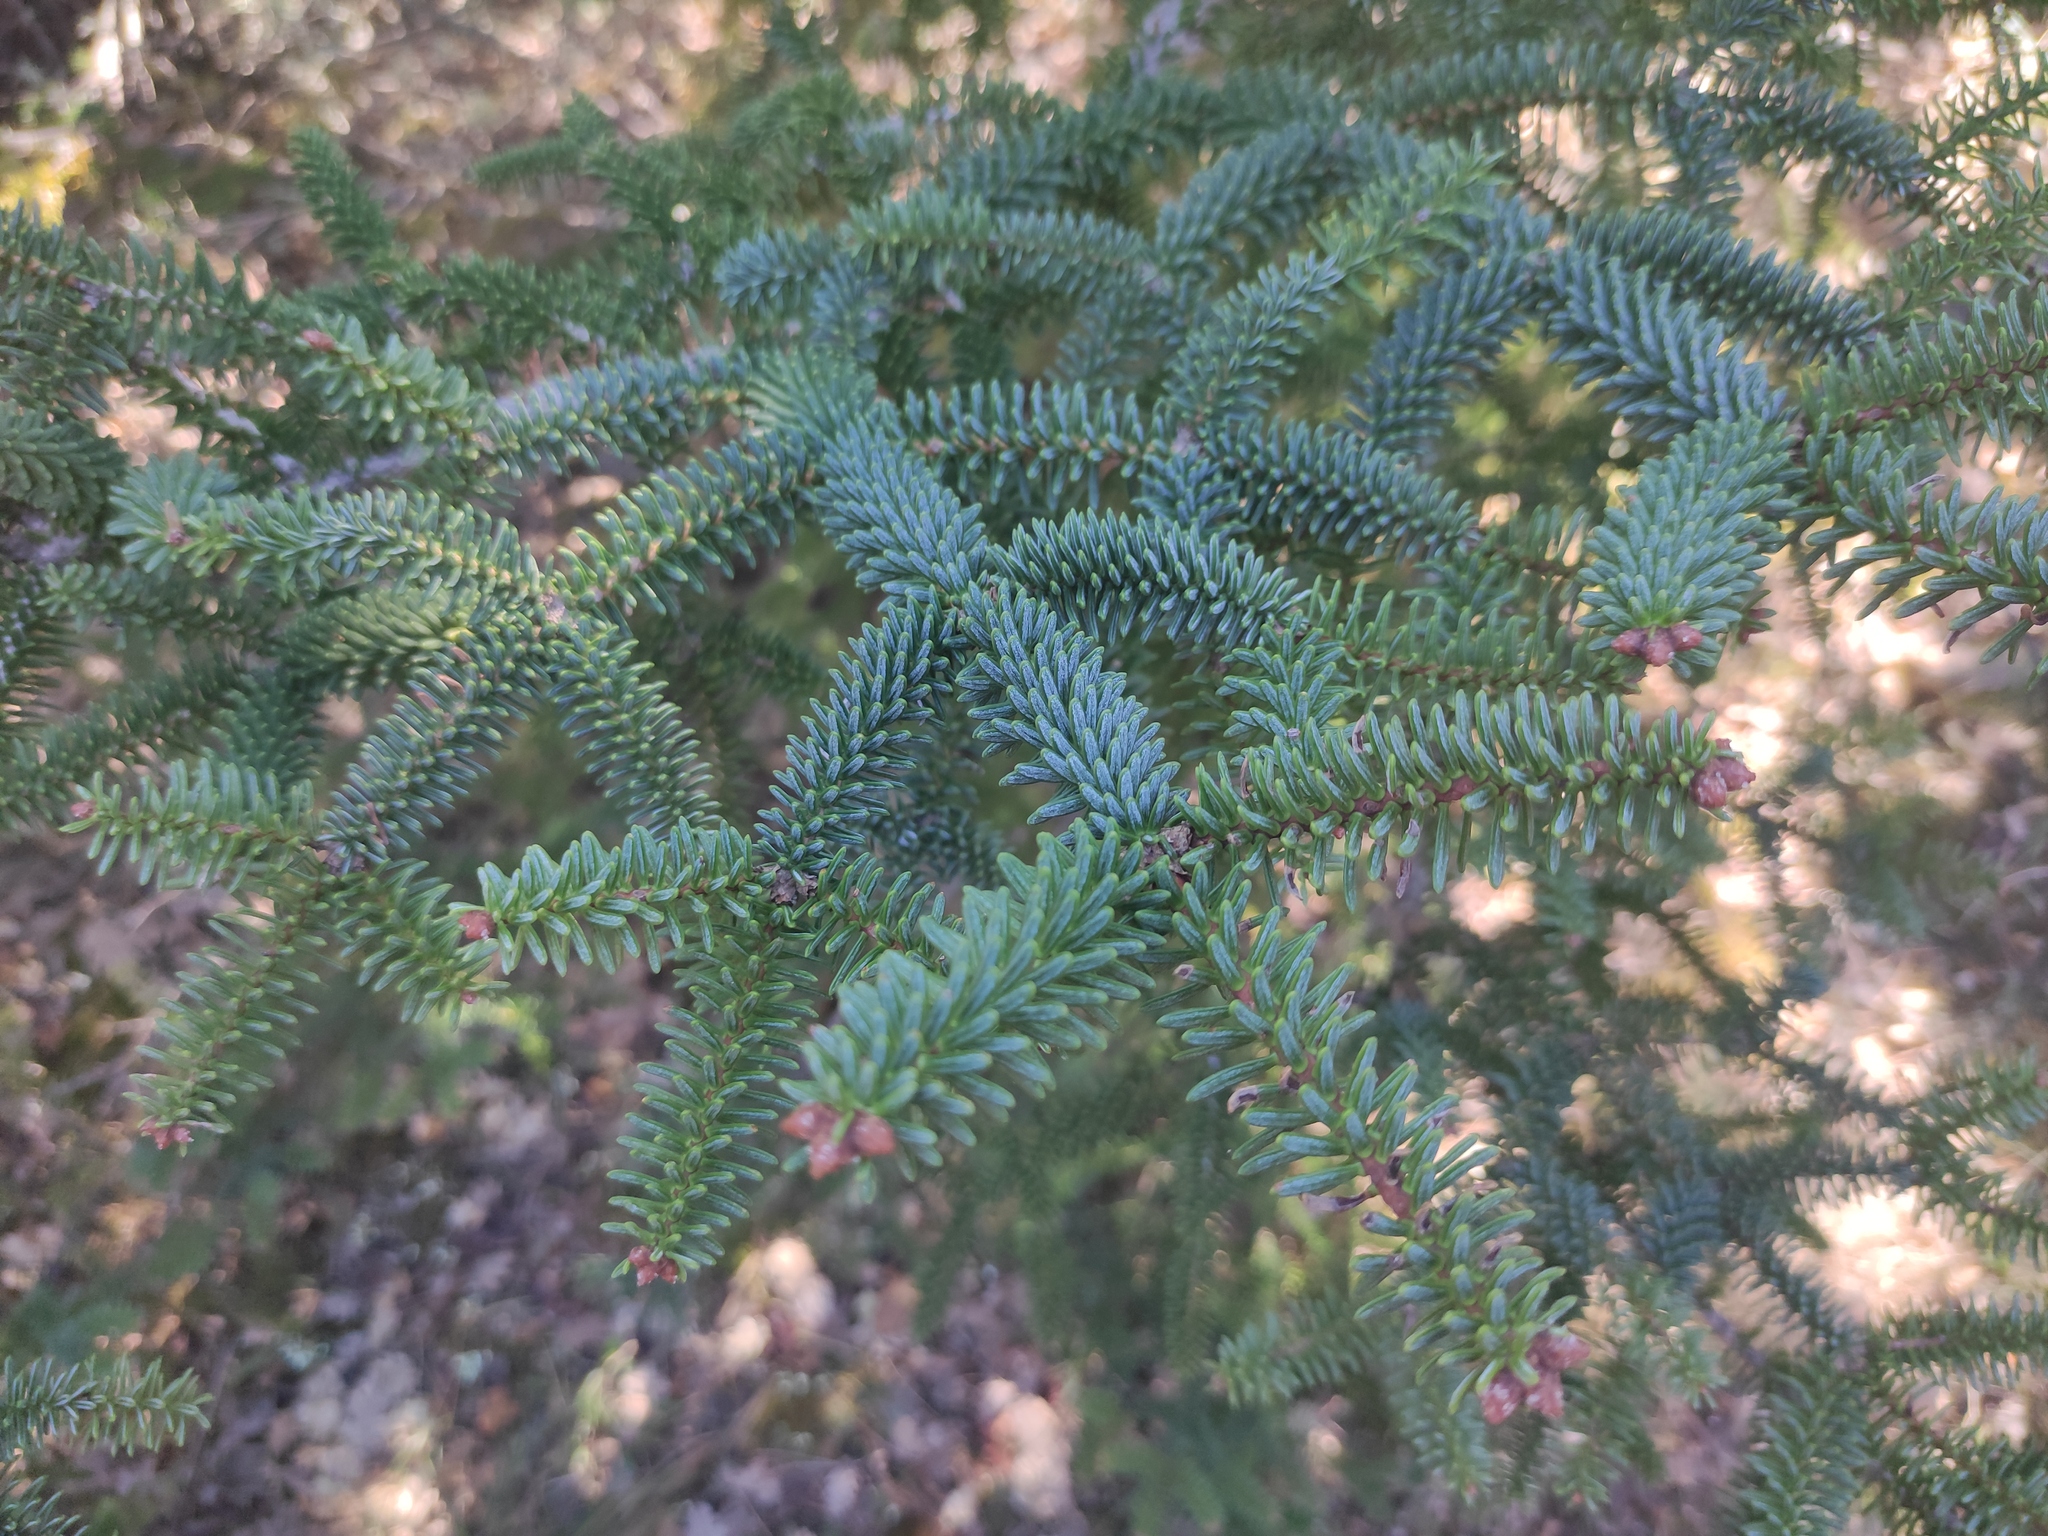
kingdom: Plantae
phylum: Tracheophyta
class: Pinopsida
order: Pinales
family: Pinaceae
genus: Abies
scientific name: Abies pinsapo
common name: Spanish fir
